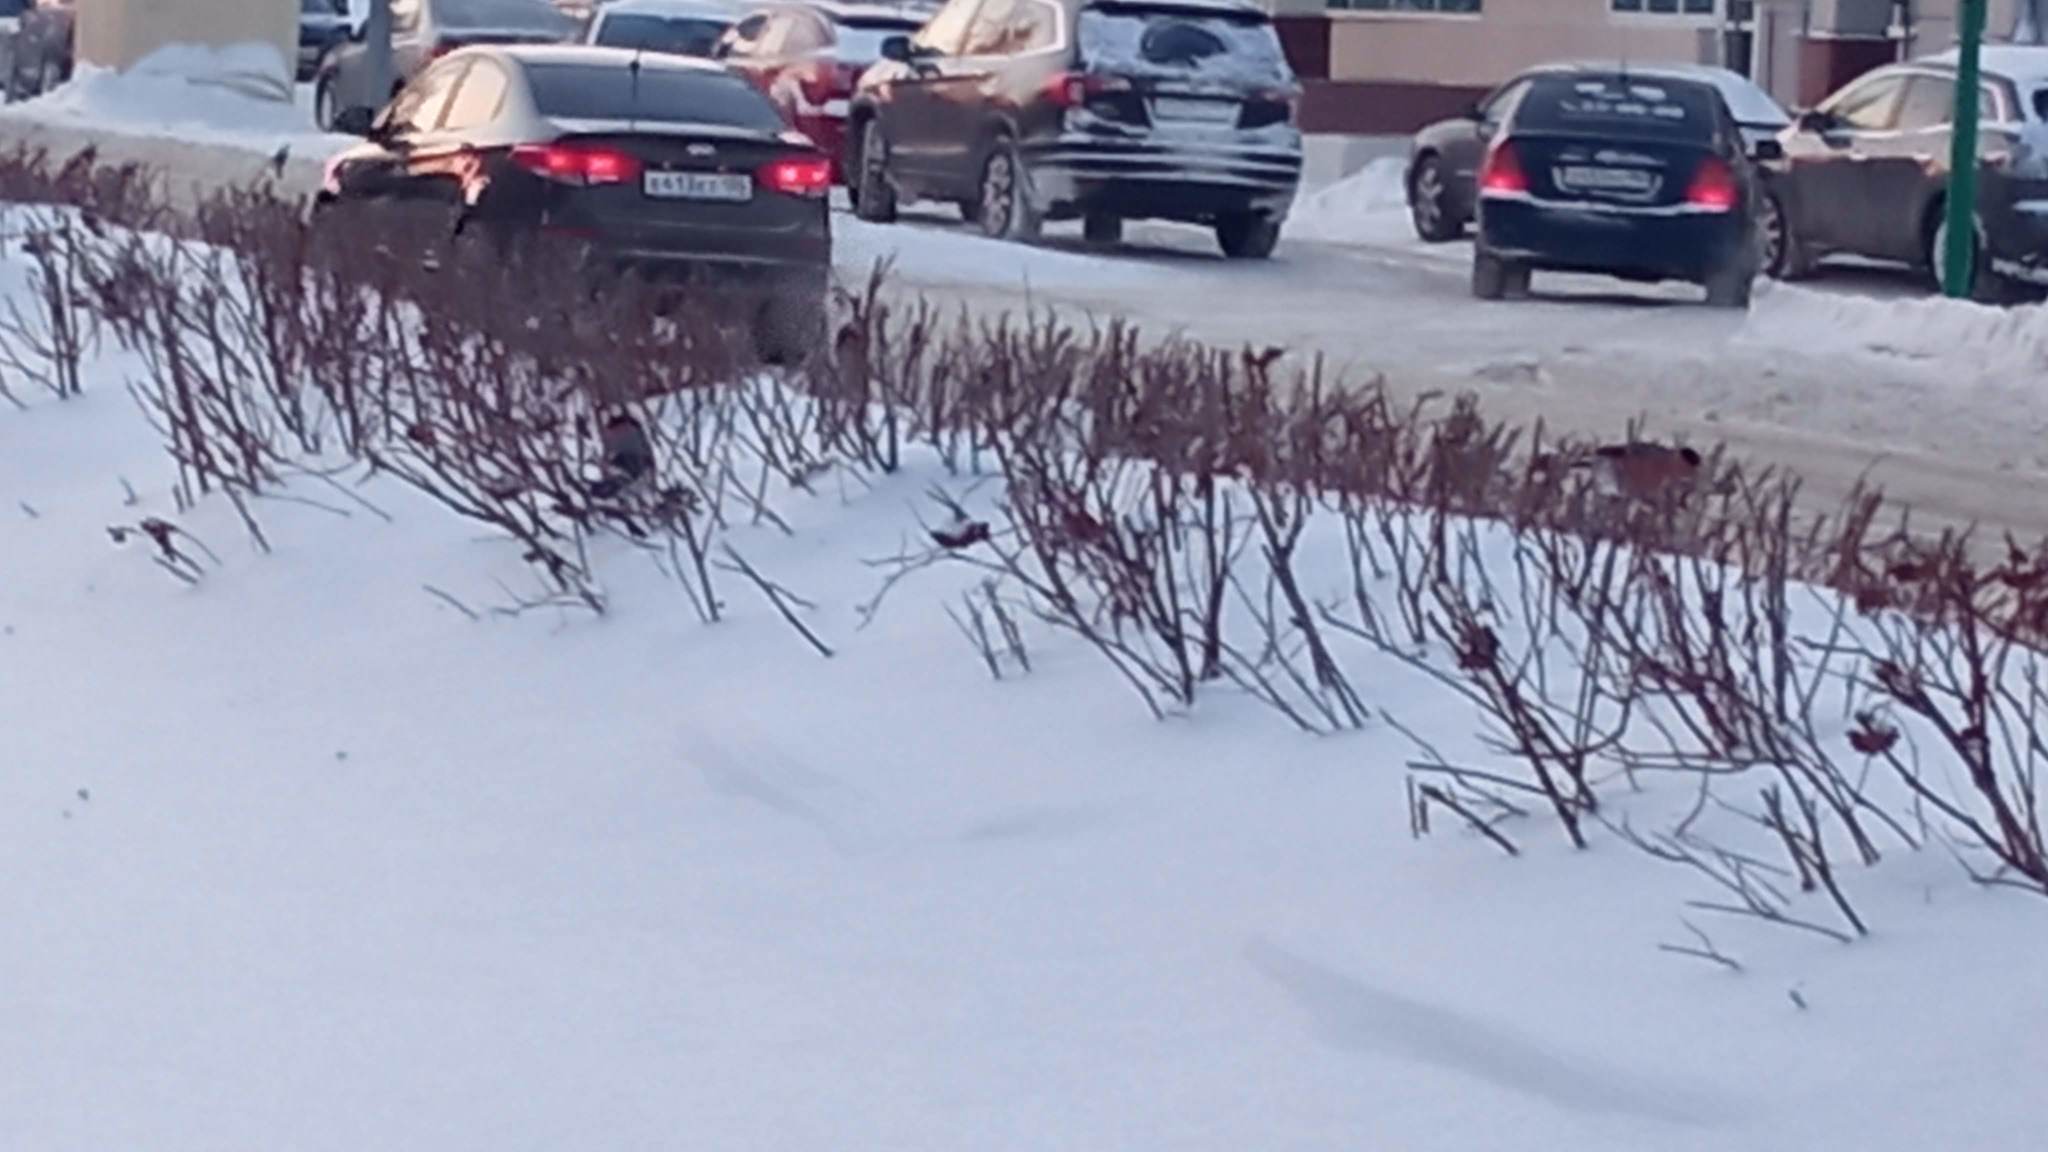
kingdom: Animalia
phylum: Chordata
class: Aves
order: Passeriformes
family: Fringillidae
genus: Pyrrhula
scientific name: Pyrrhula pyrrhula
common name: Eurasian bullfinch
